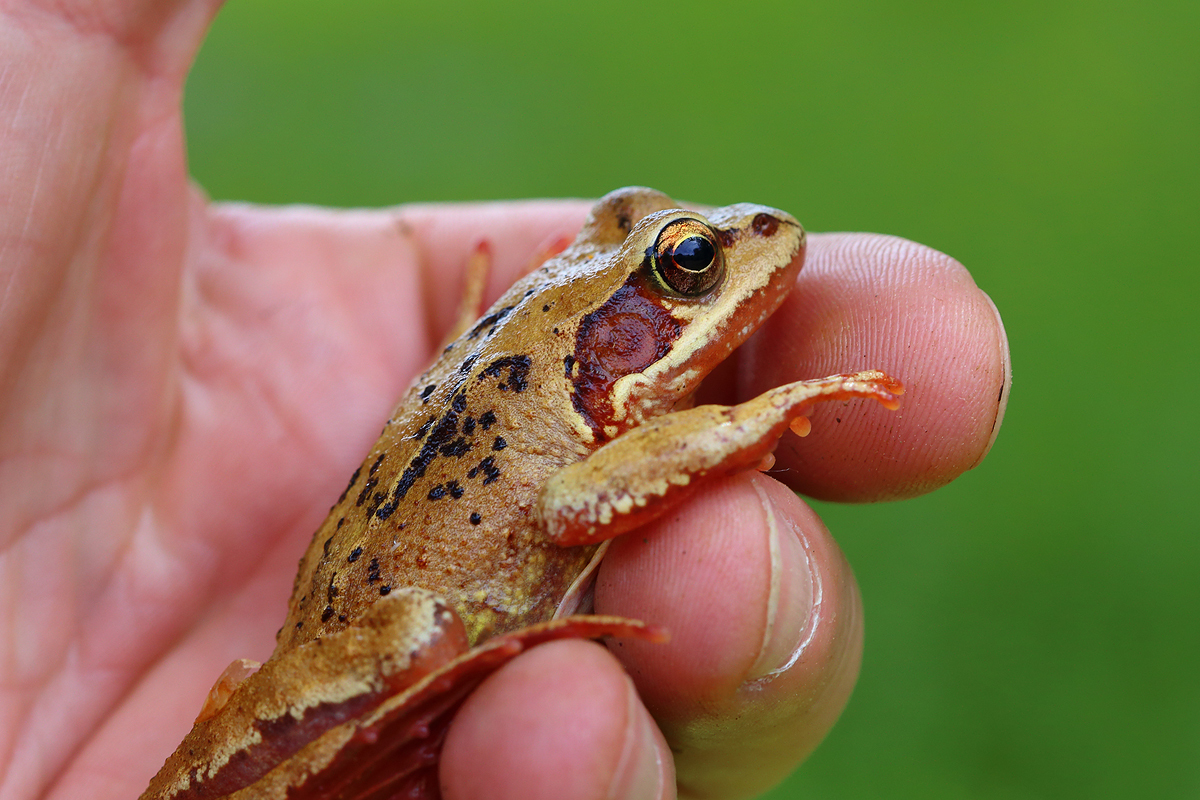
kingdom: Animalia
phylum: Chordata
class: Amphibia
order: Anura
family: Ranidae
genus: Rana
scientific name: Rana temporaria
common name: Common frog
